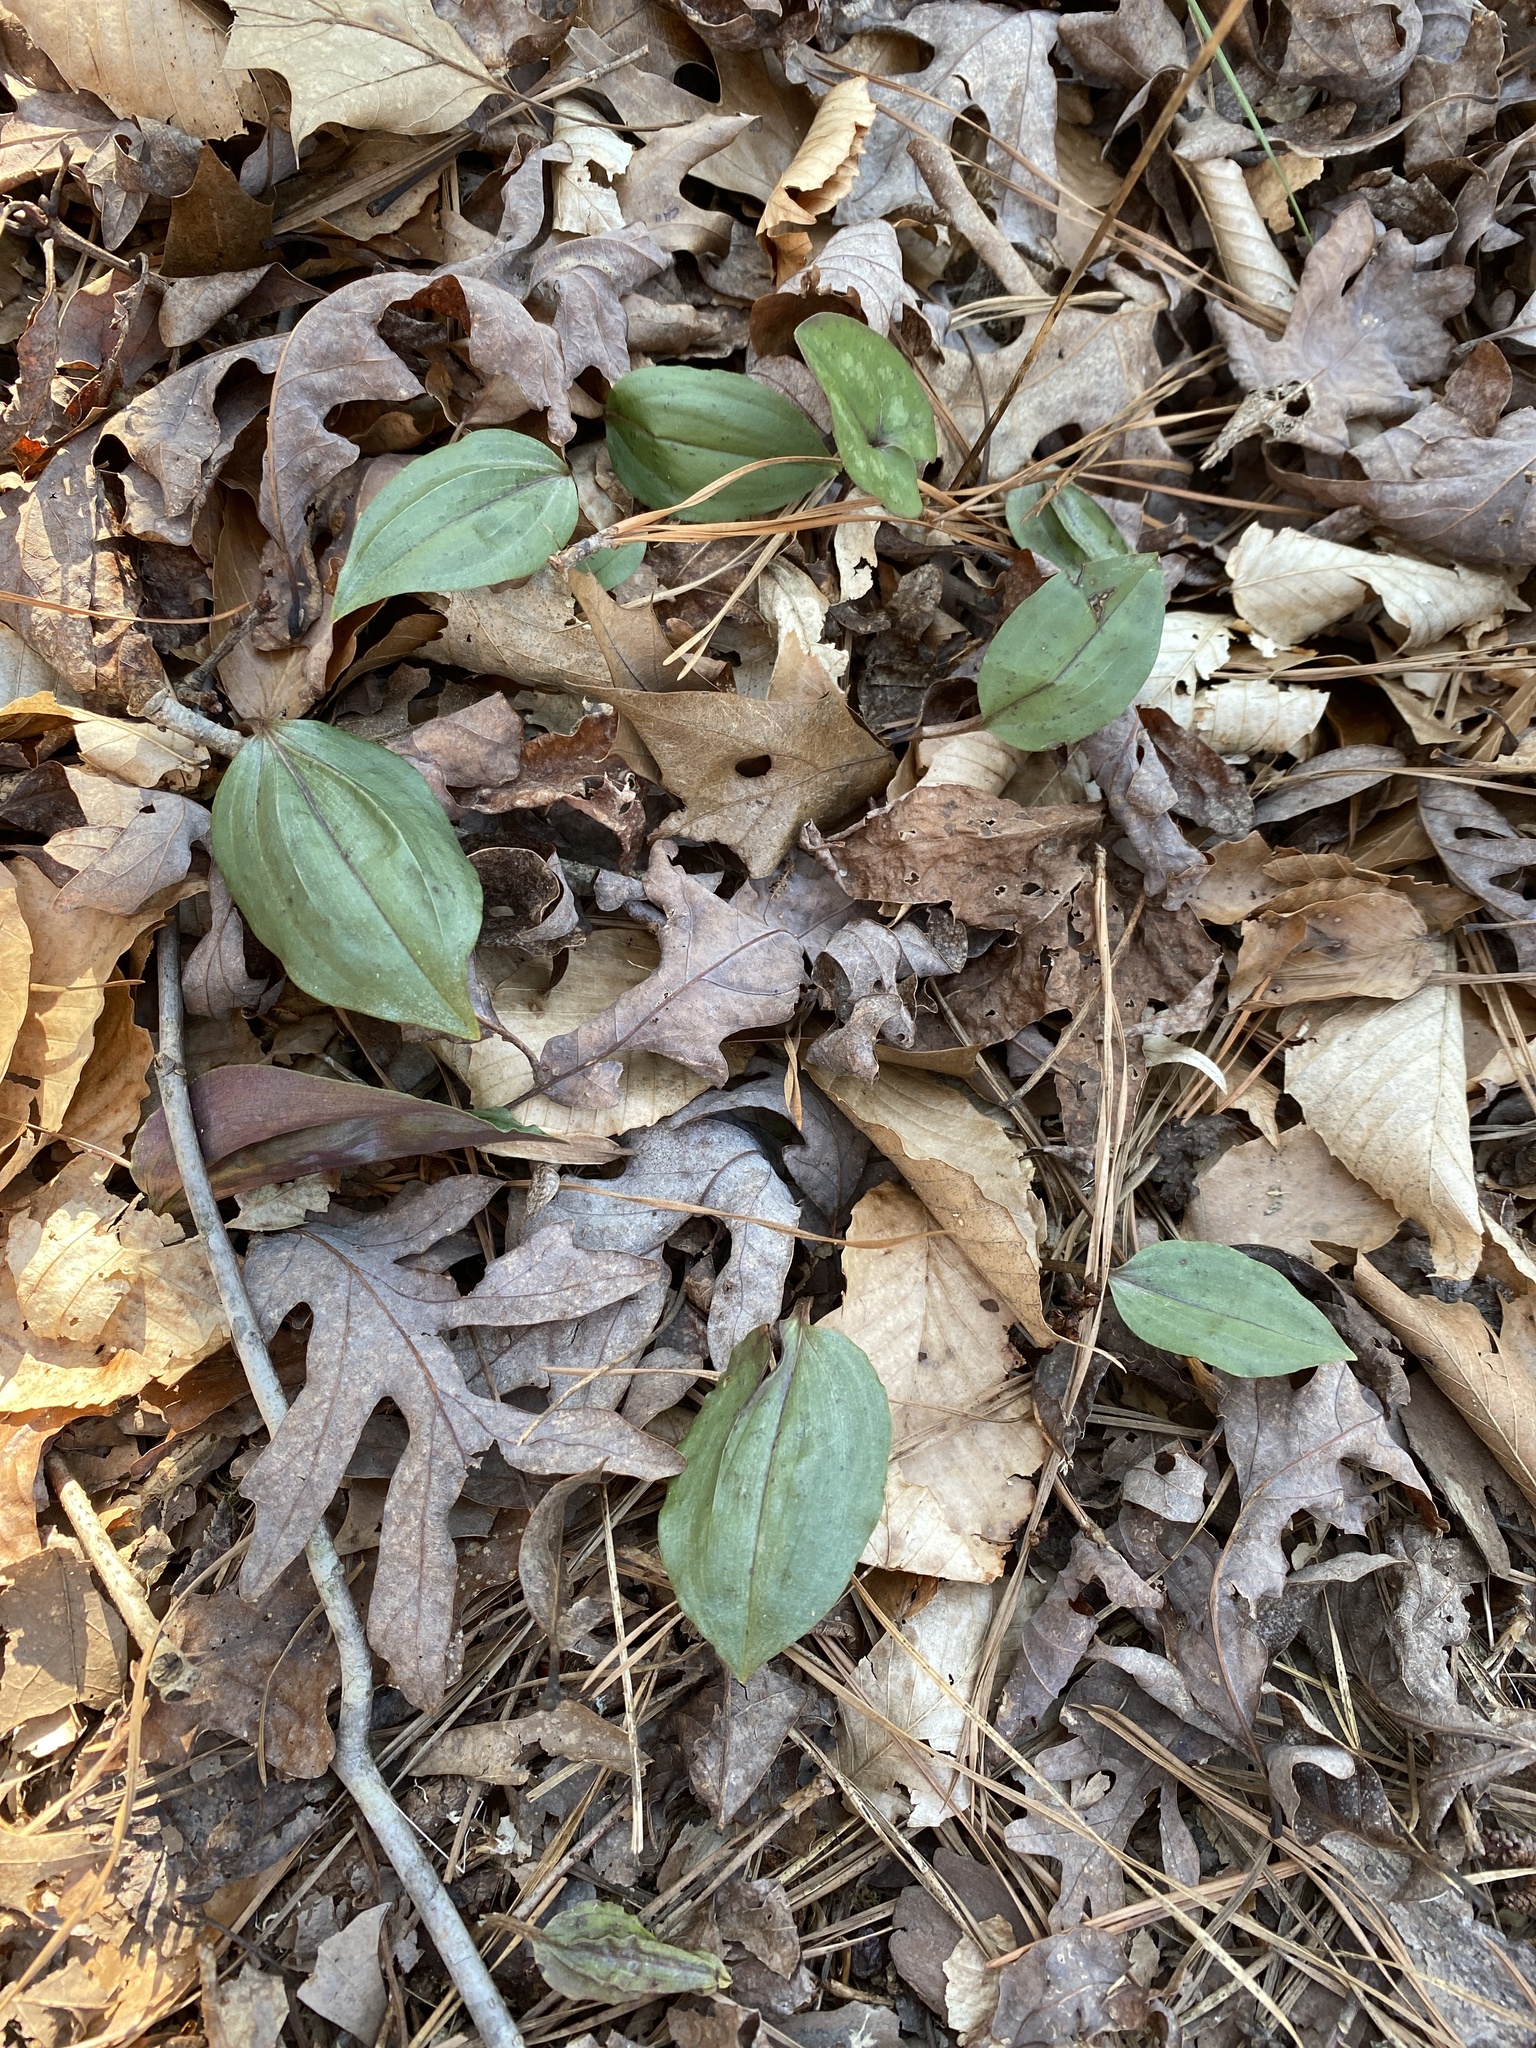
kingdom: Plantae
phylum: Tracheophyta
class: Liliopsida
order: Asparagales
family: Orchidaceae
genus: Tipularia
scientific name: Tipularia discolor
